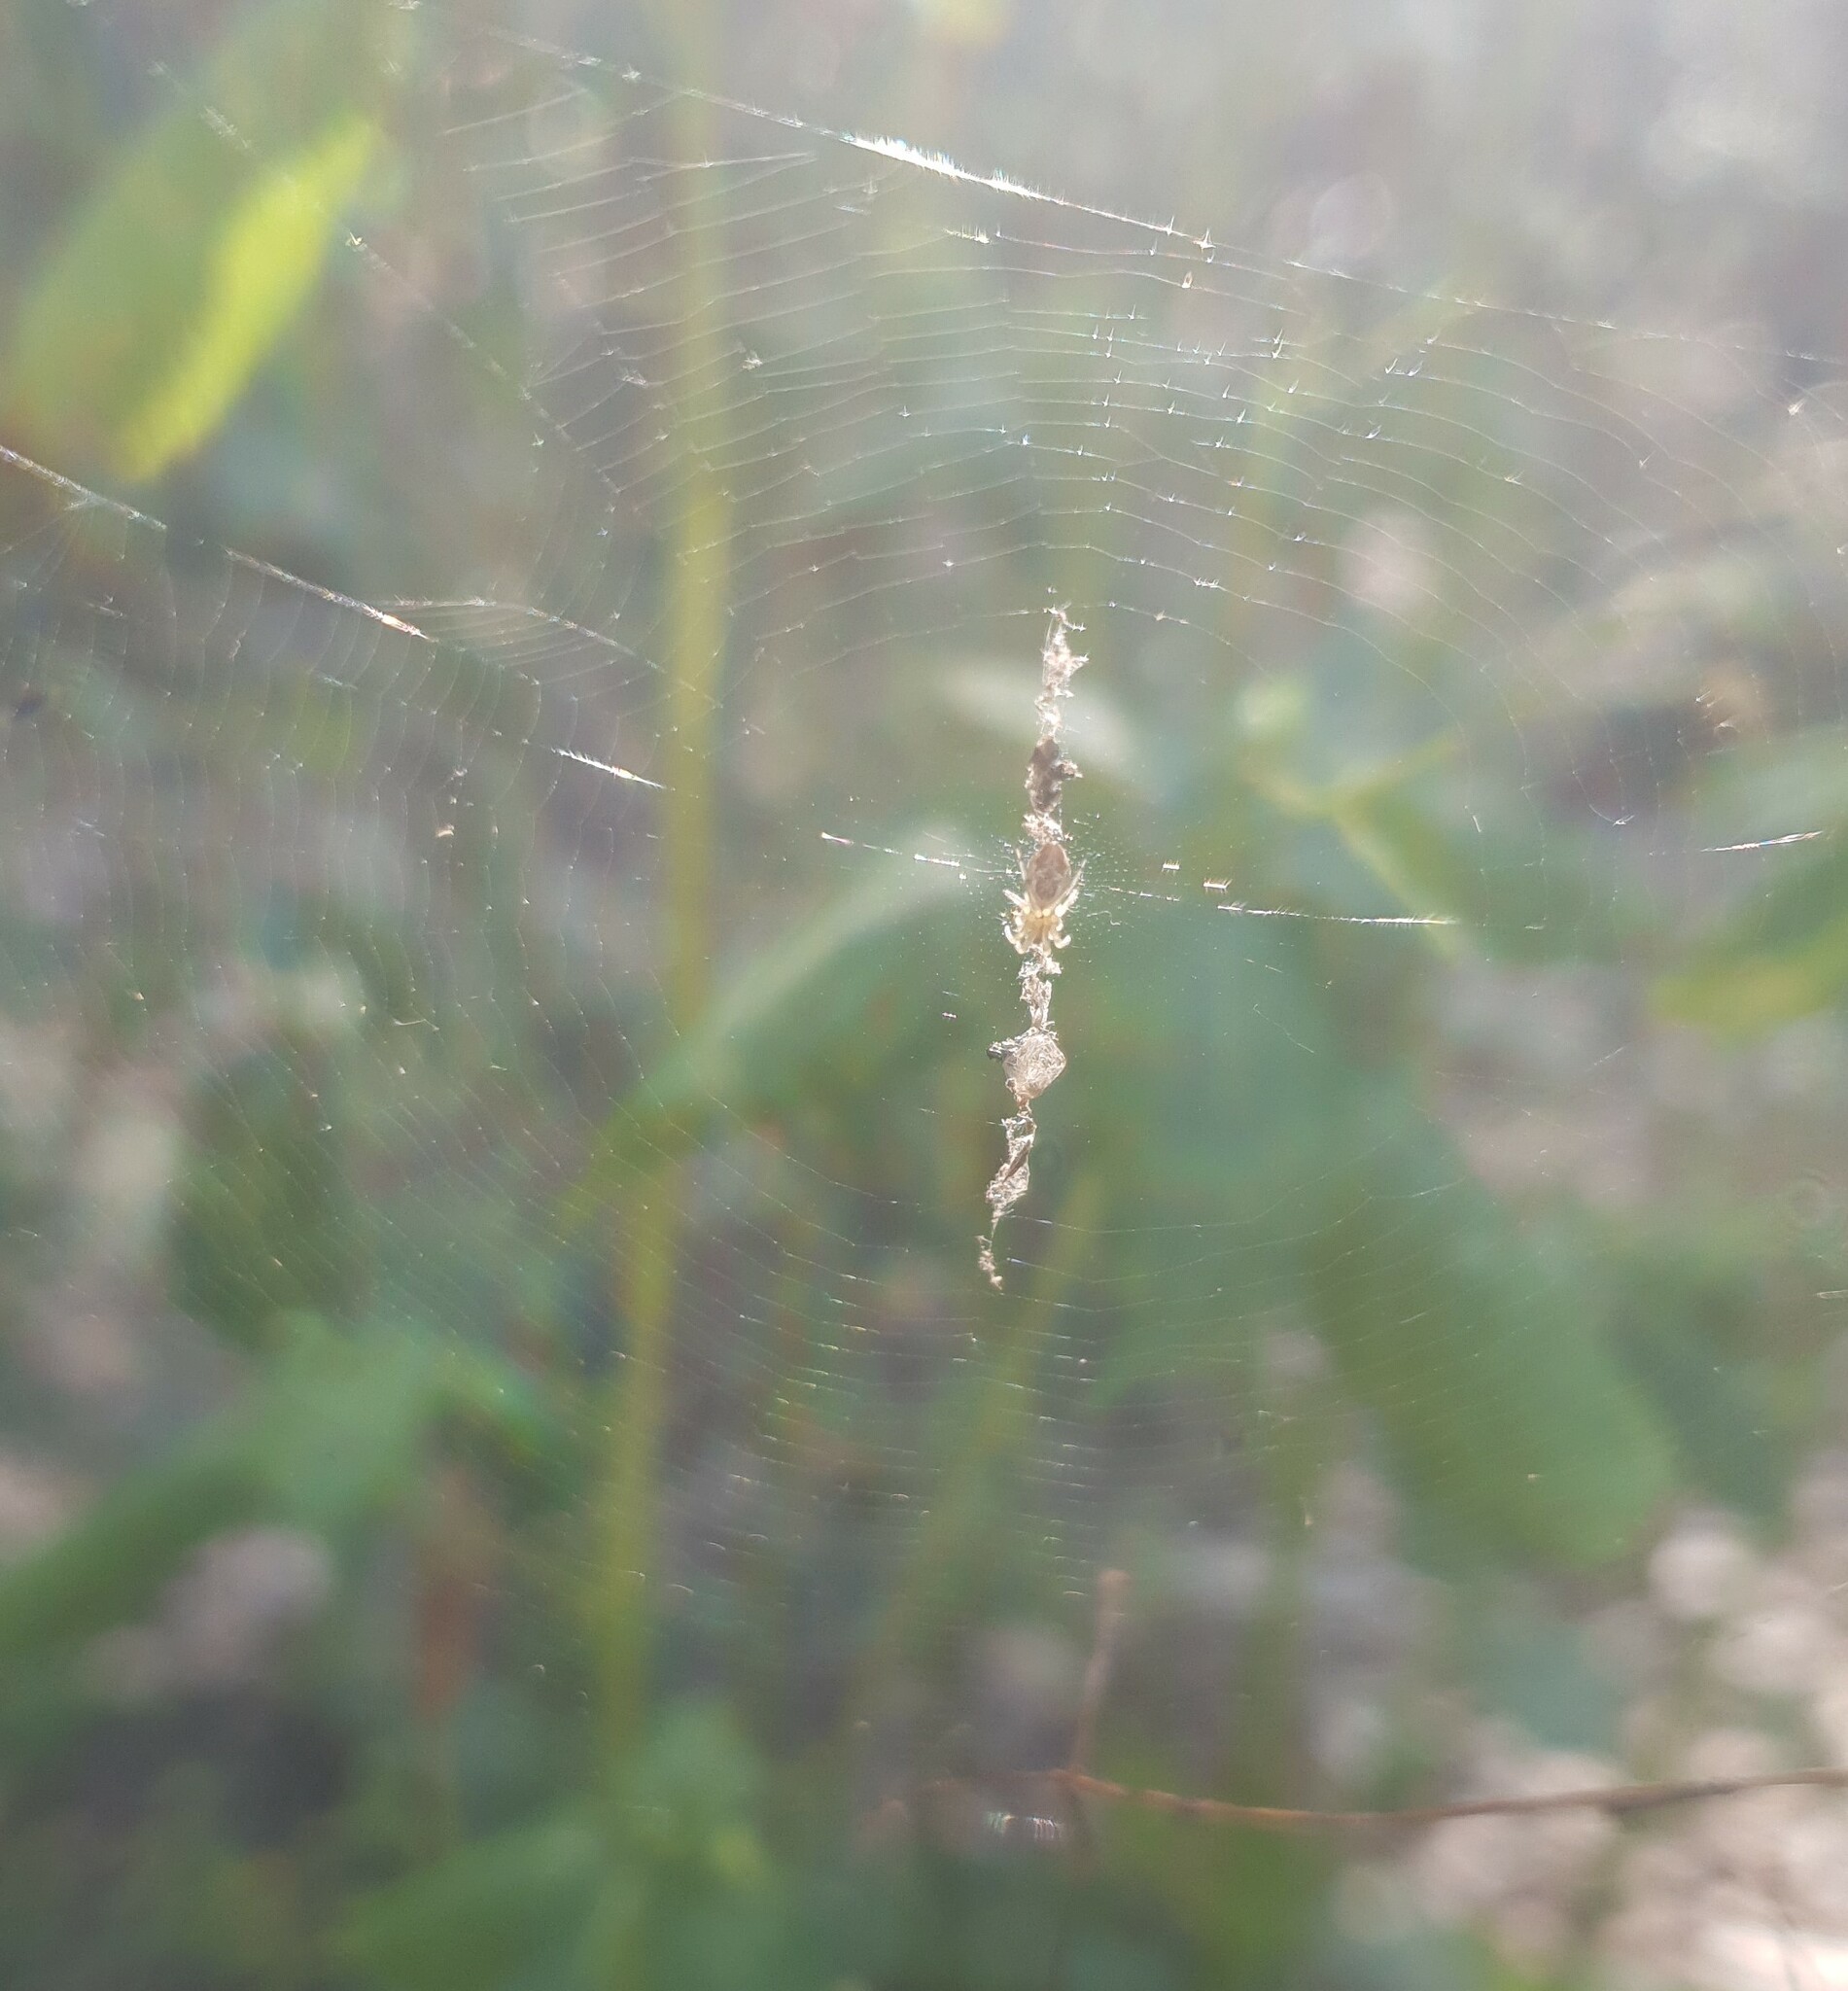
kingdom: Animalia
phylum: Arthropoda
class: Arachnida
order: Araneae
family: Araneidae
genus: Cyclosa
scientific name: Cyclosa conica
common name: Conical trashline orbweaver
